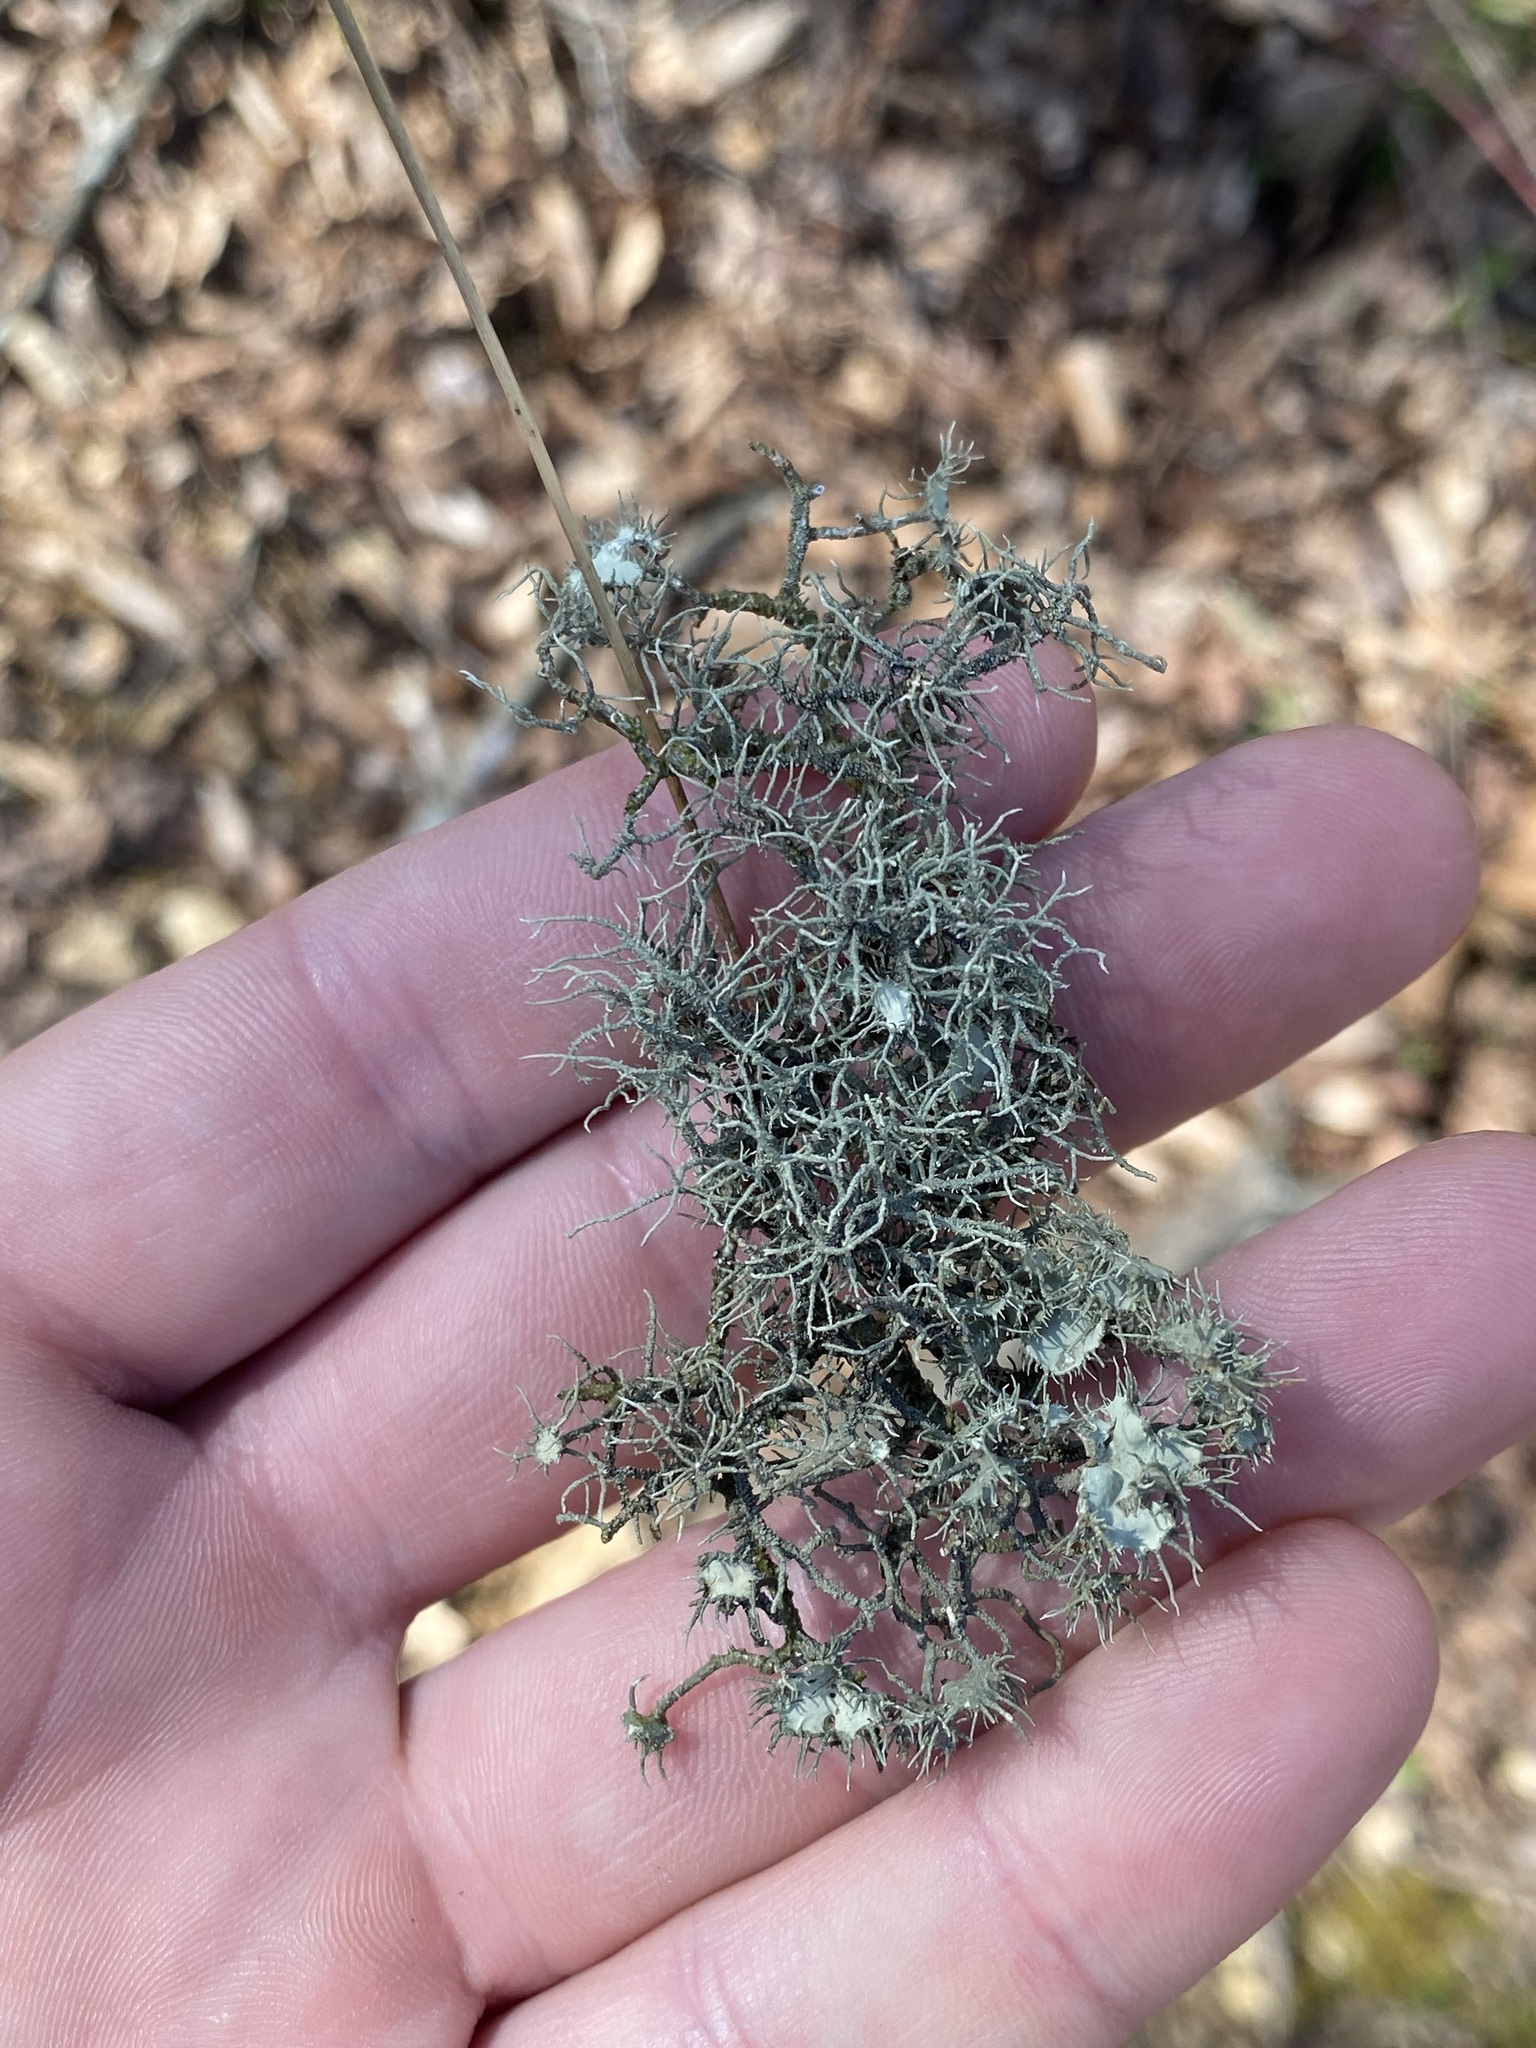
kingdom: Fungi
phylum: Ascomycota
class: Lecanoromycetes
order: Lecanorales
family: Parmeliaceae
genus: Usnea
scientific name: Usnea strigosa
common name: Bushy beard lichen
